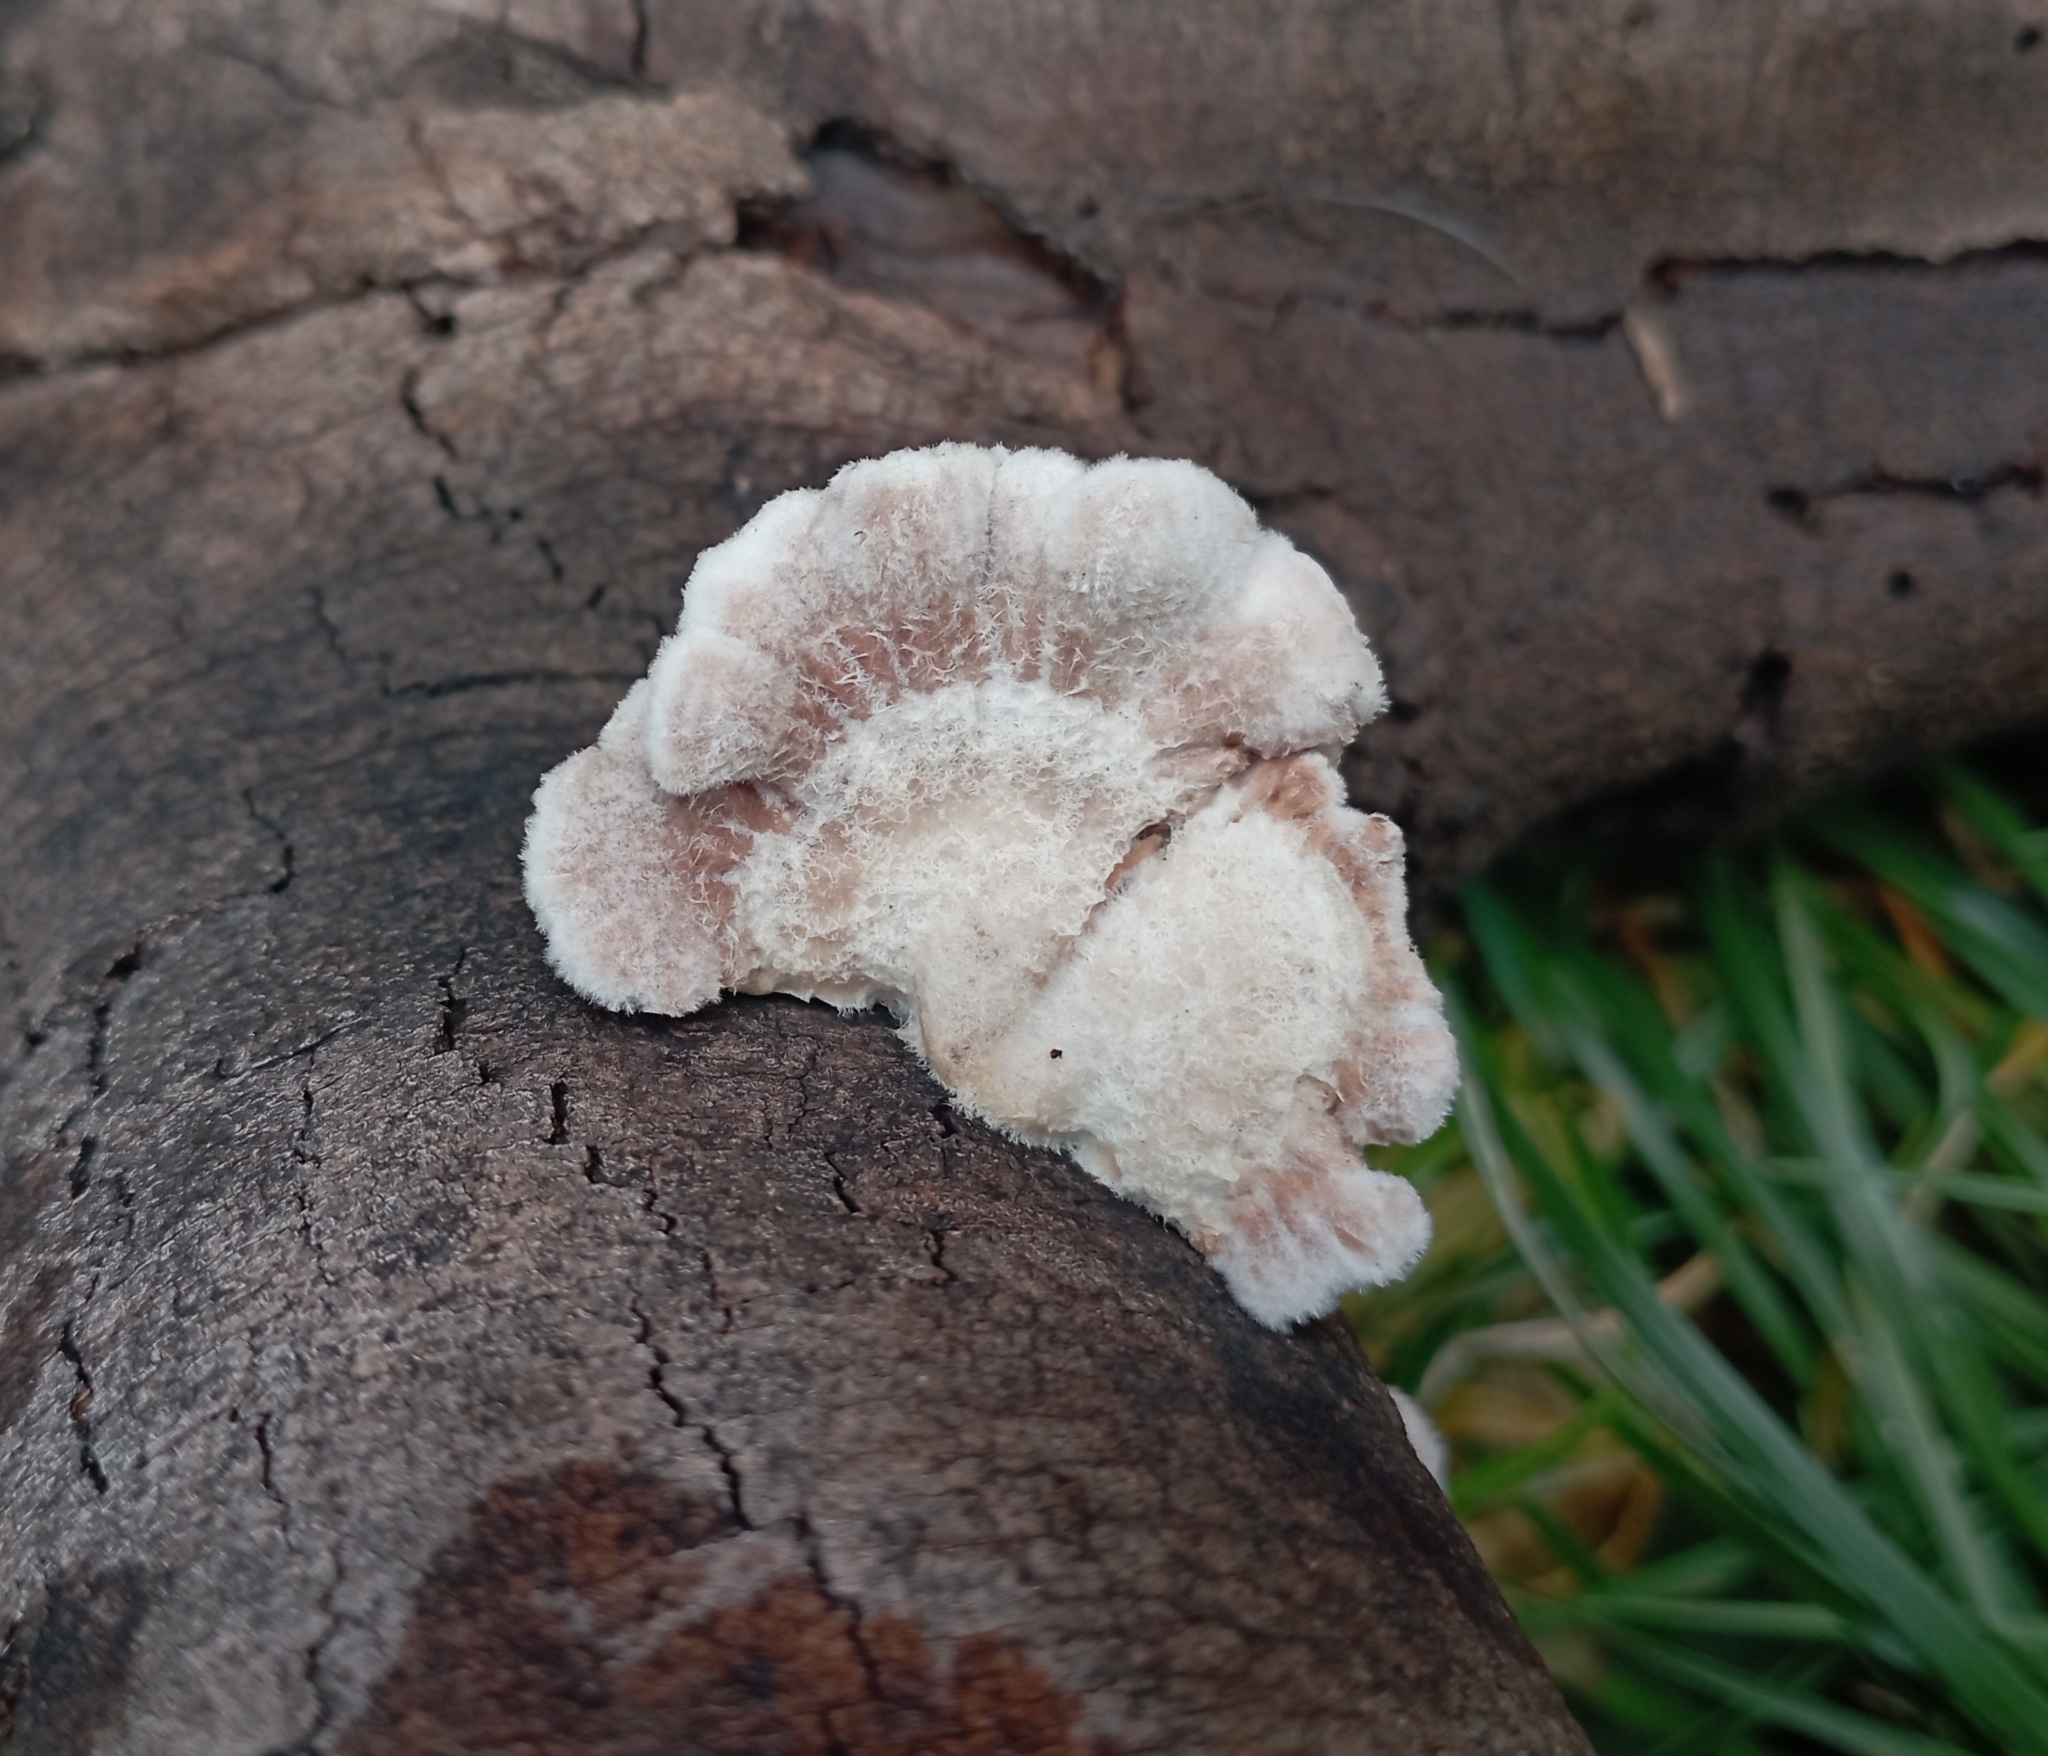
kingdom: Fungi
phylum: Basidiomycota
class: Agaricomycetes
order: Agaricales
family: Schizophyllaceae
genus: Schizophyllum
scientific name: Schizophyllum commune
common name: Common porecrust
